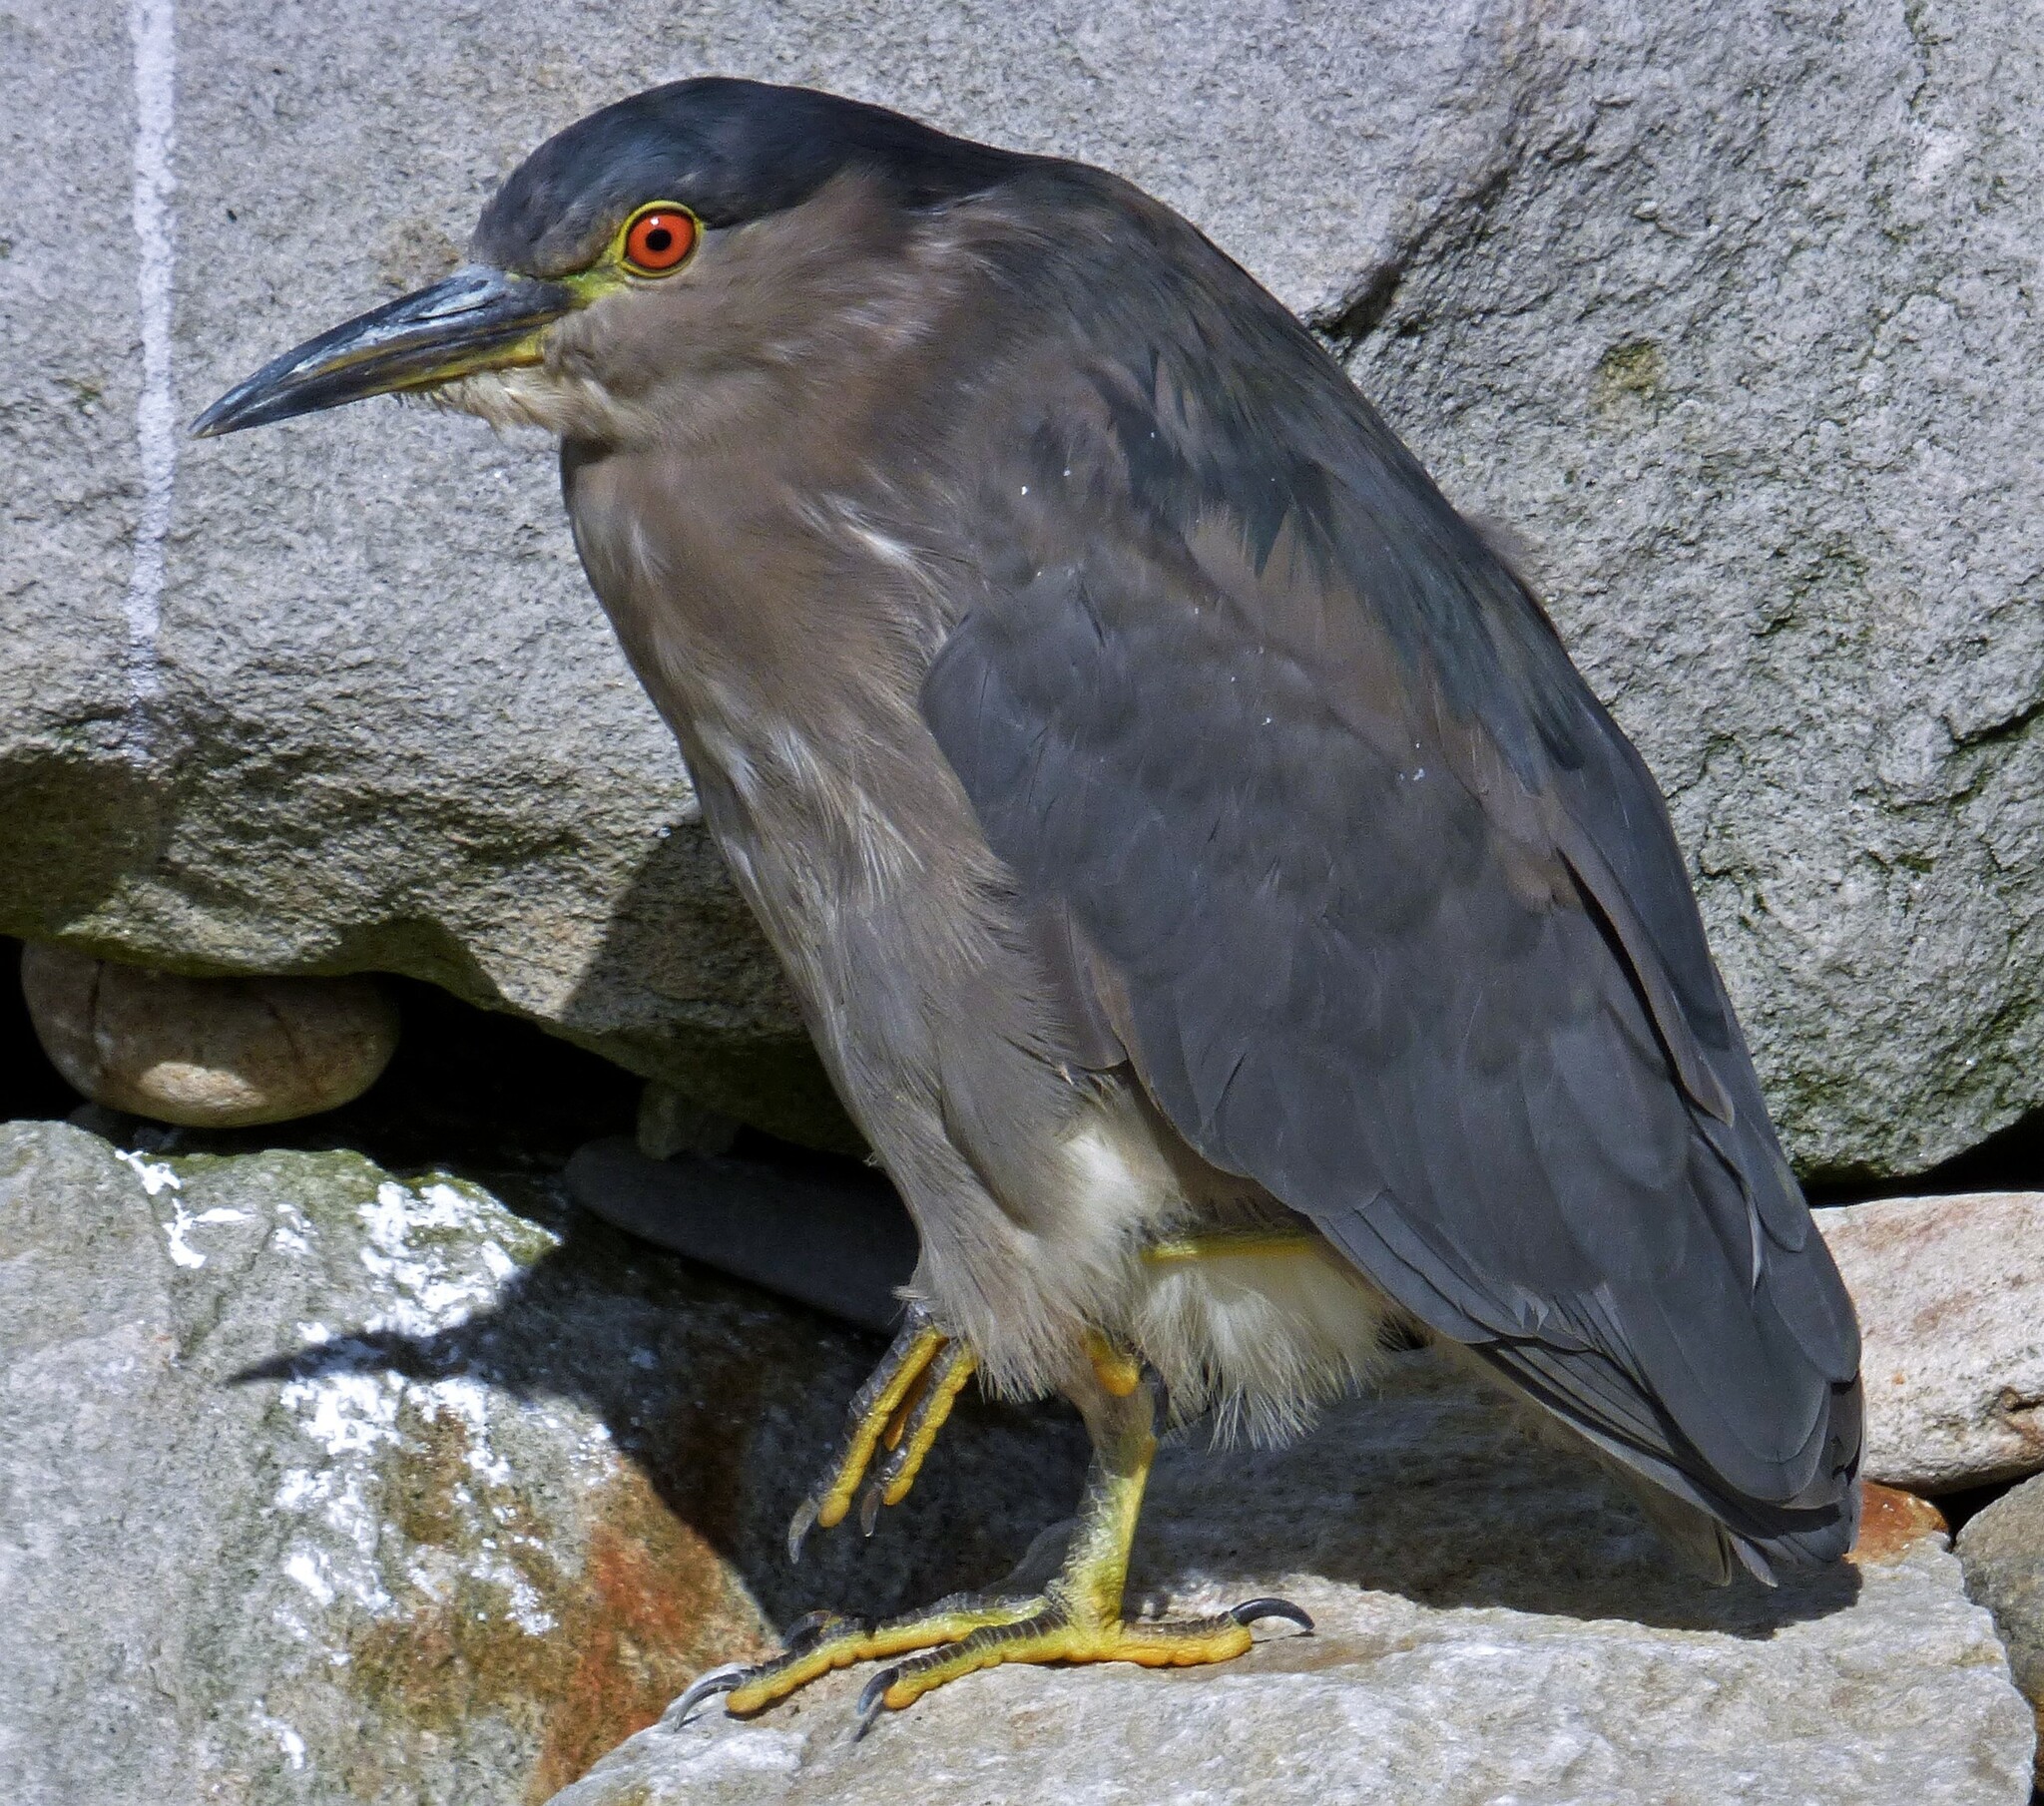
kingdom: Animalia
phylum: Chordata
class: Aves
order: Pelecaniformes
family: Ardeidae
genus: Nycticorax
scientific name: Nycticorax nycticorax
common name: Black-crowned night heron
